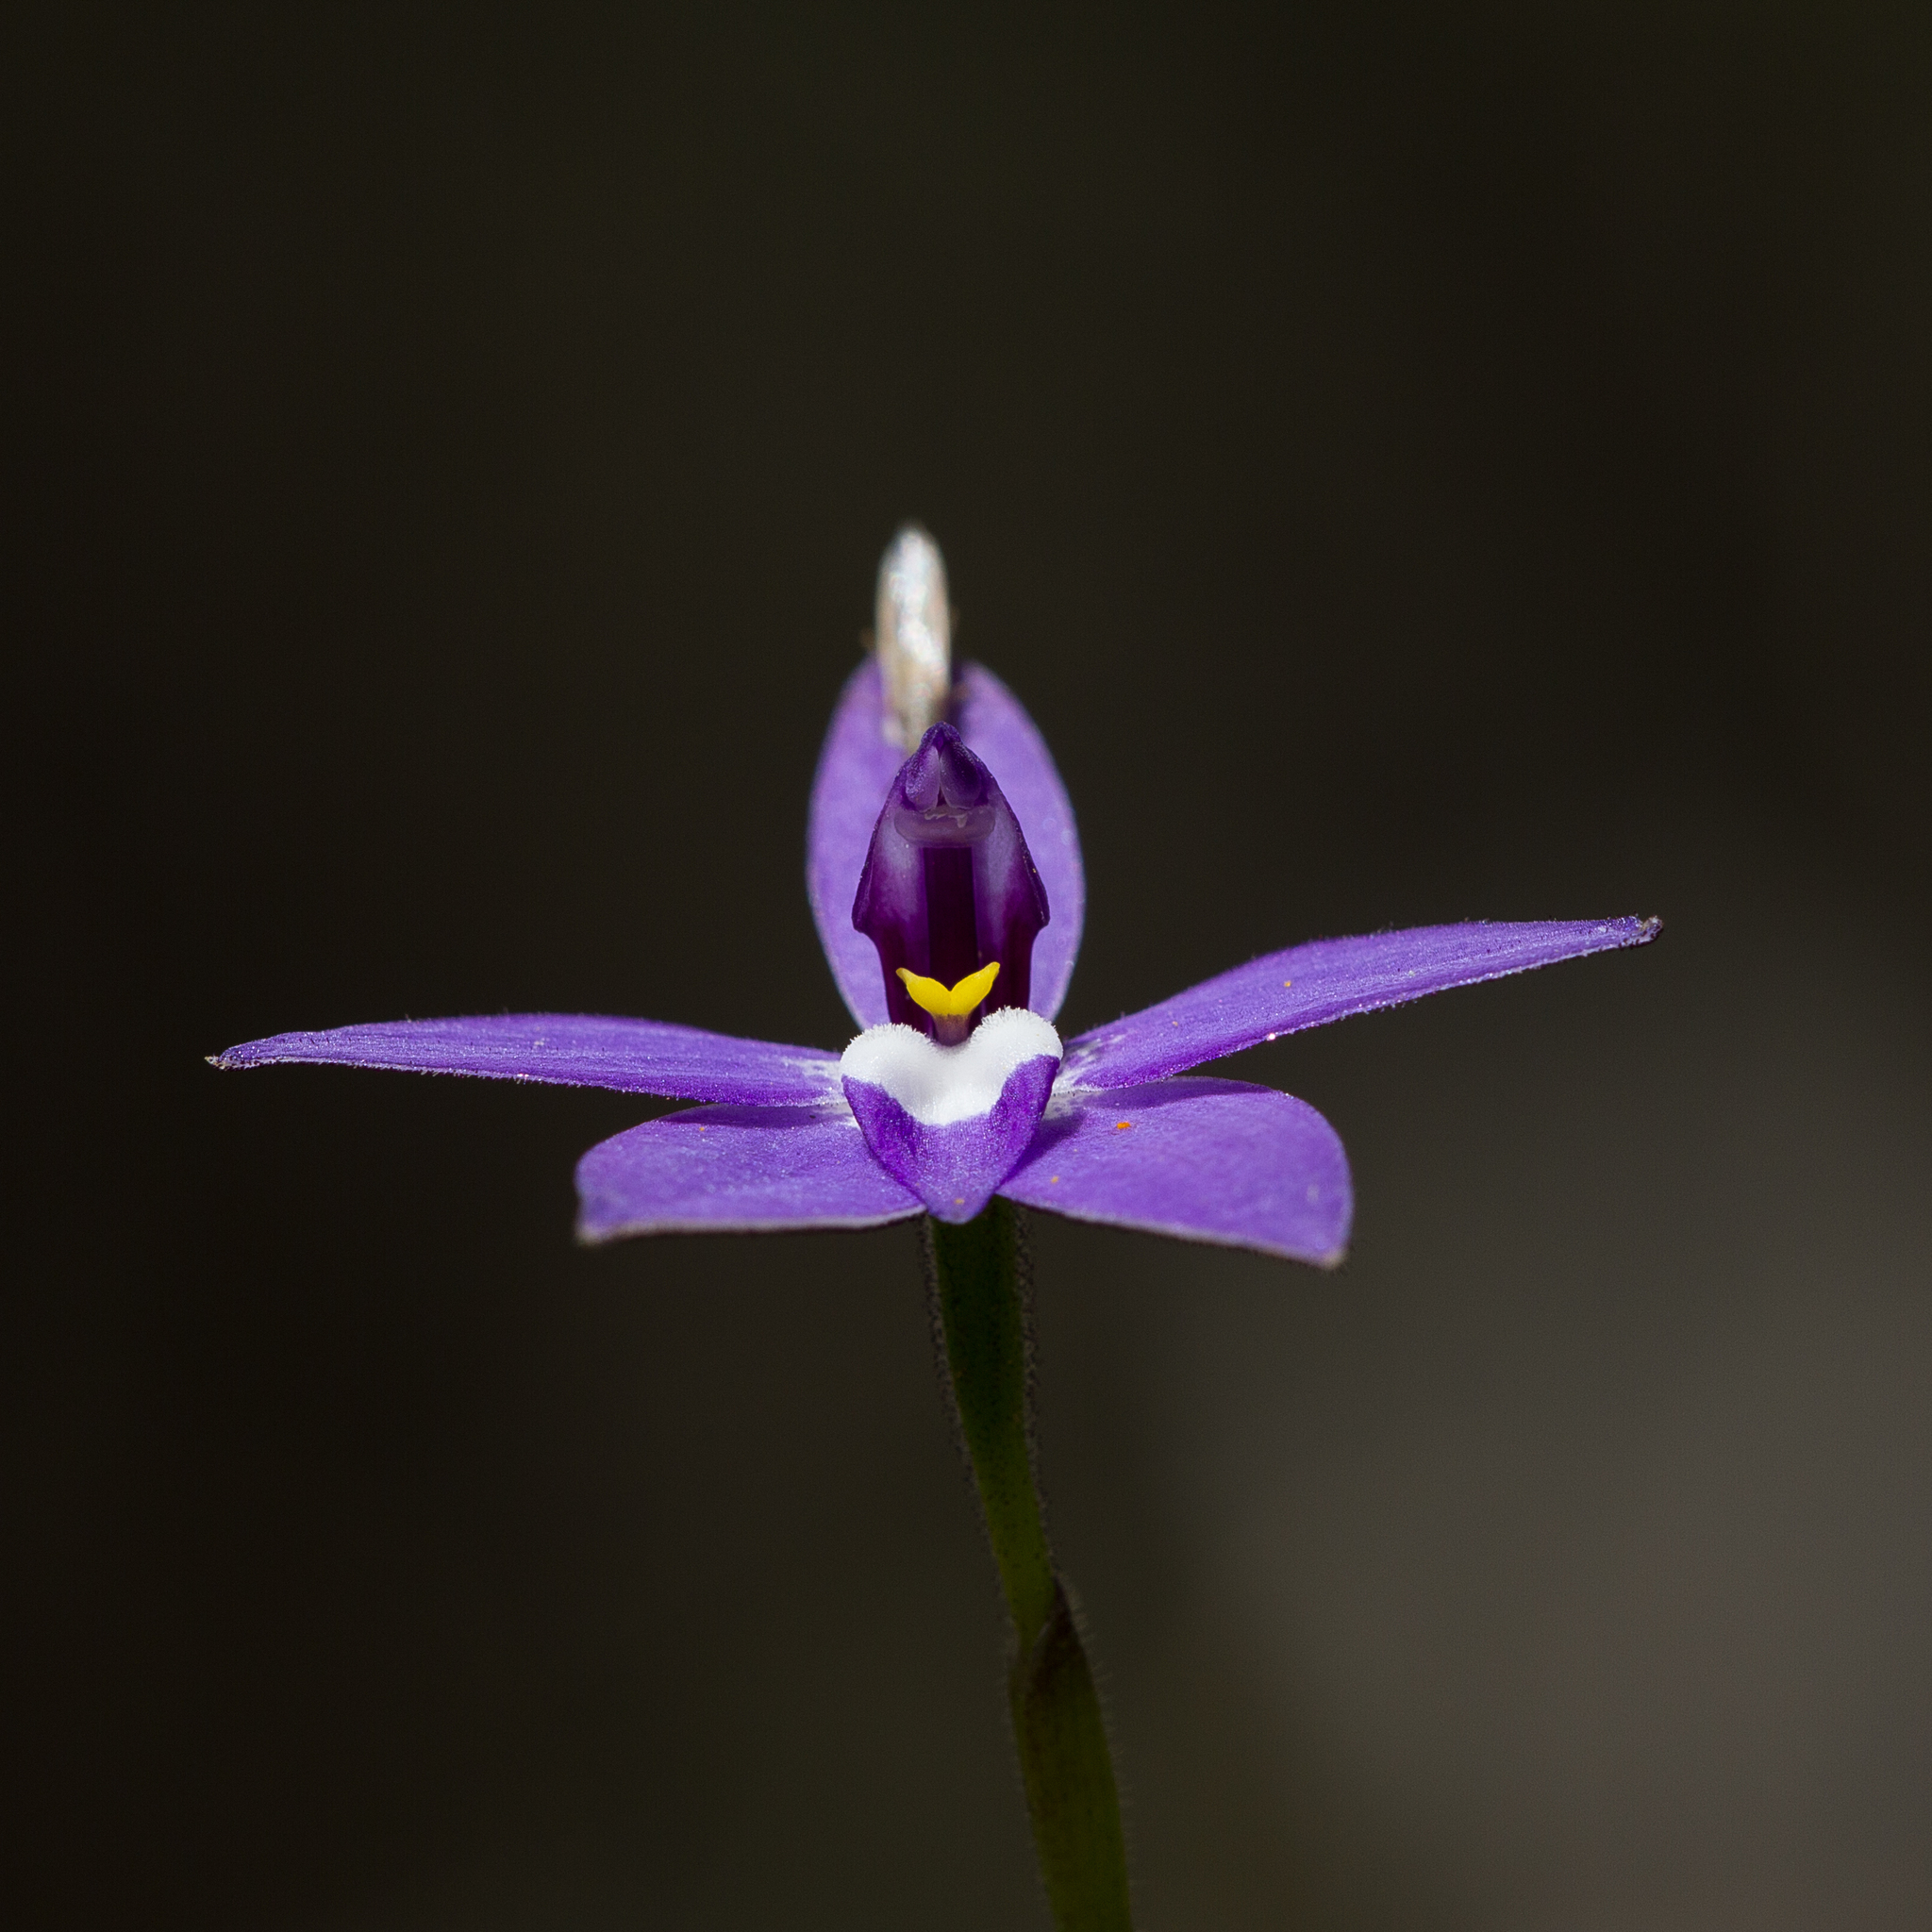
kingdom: Plantae
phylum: Tracheophyta
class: Liliopsida
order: Asparagales
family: Orchidaceae
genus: Caladenia
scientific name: Caladenia major
